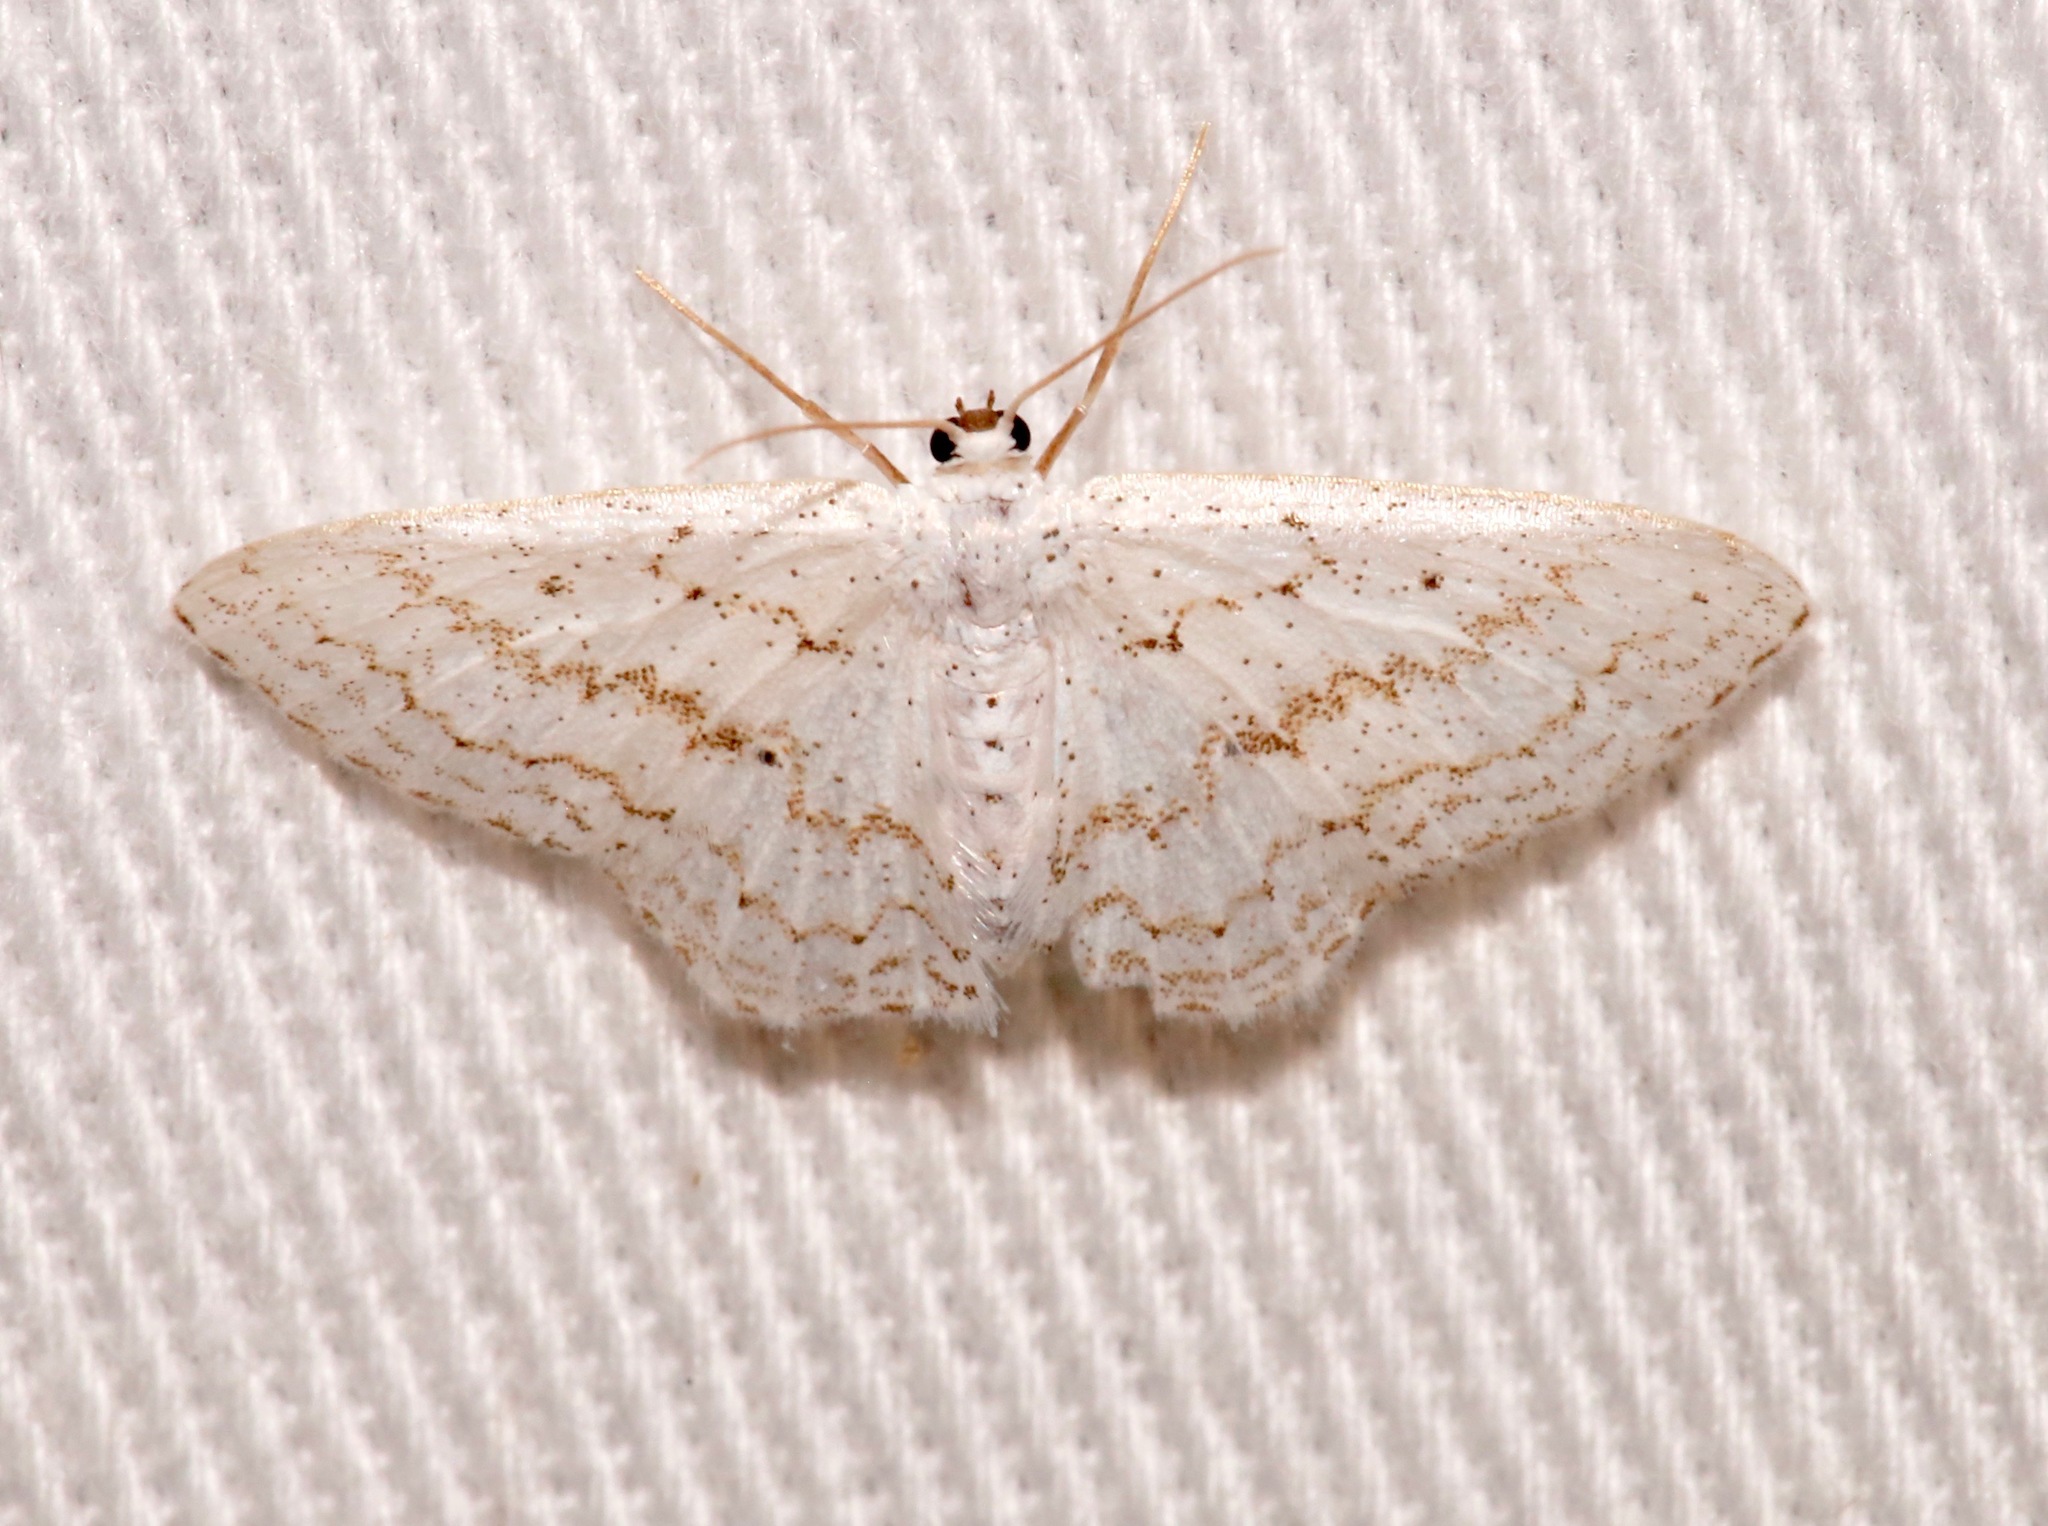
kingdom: Animalia
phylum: Arthropoda
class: Insecta
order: Lepidoptera
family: Geometridae
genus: Idaea
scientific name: Idaea tacturata
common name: Dot-lined wave
